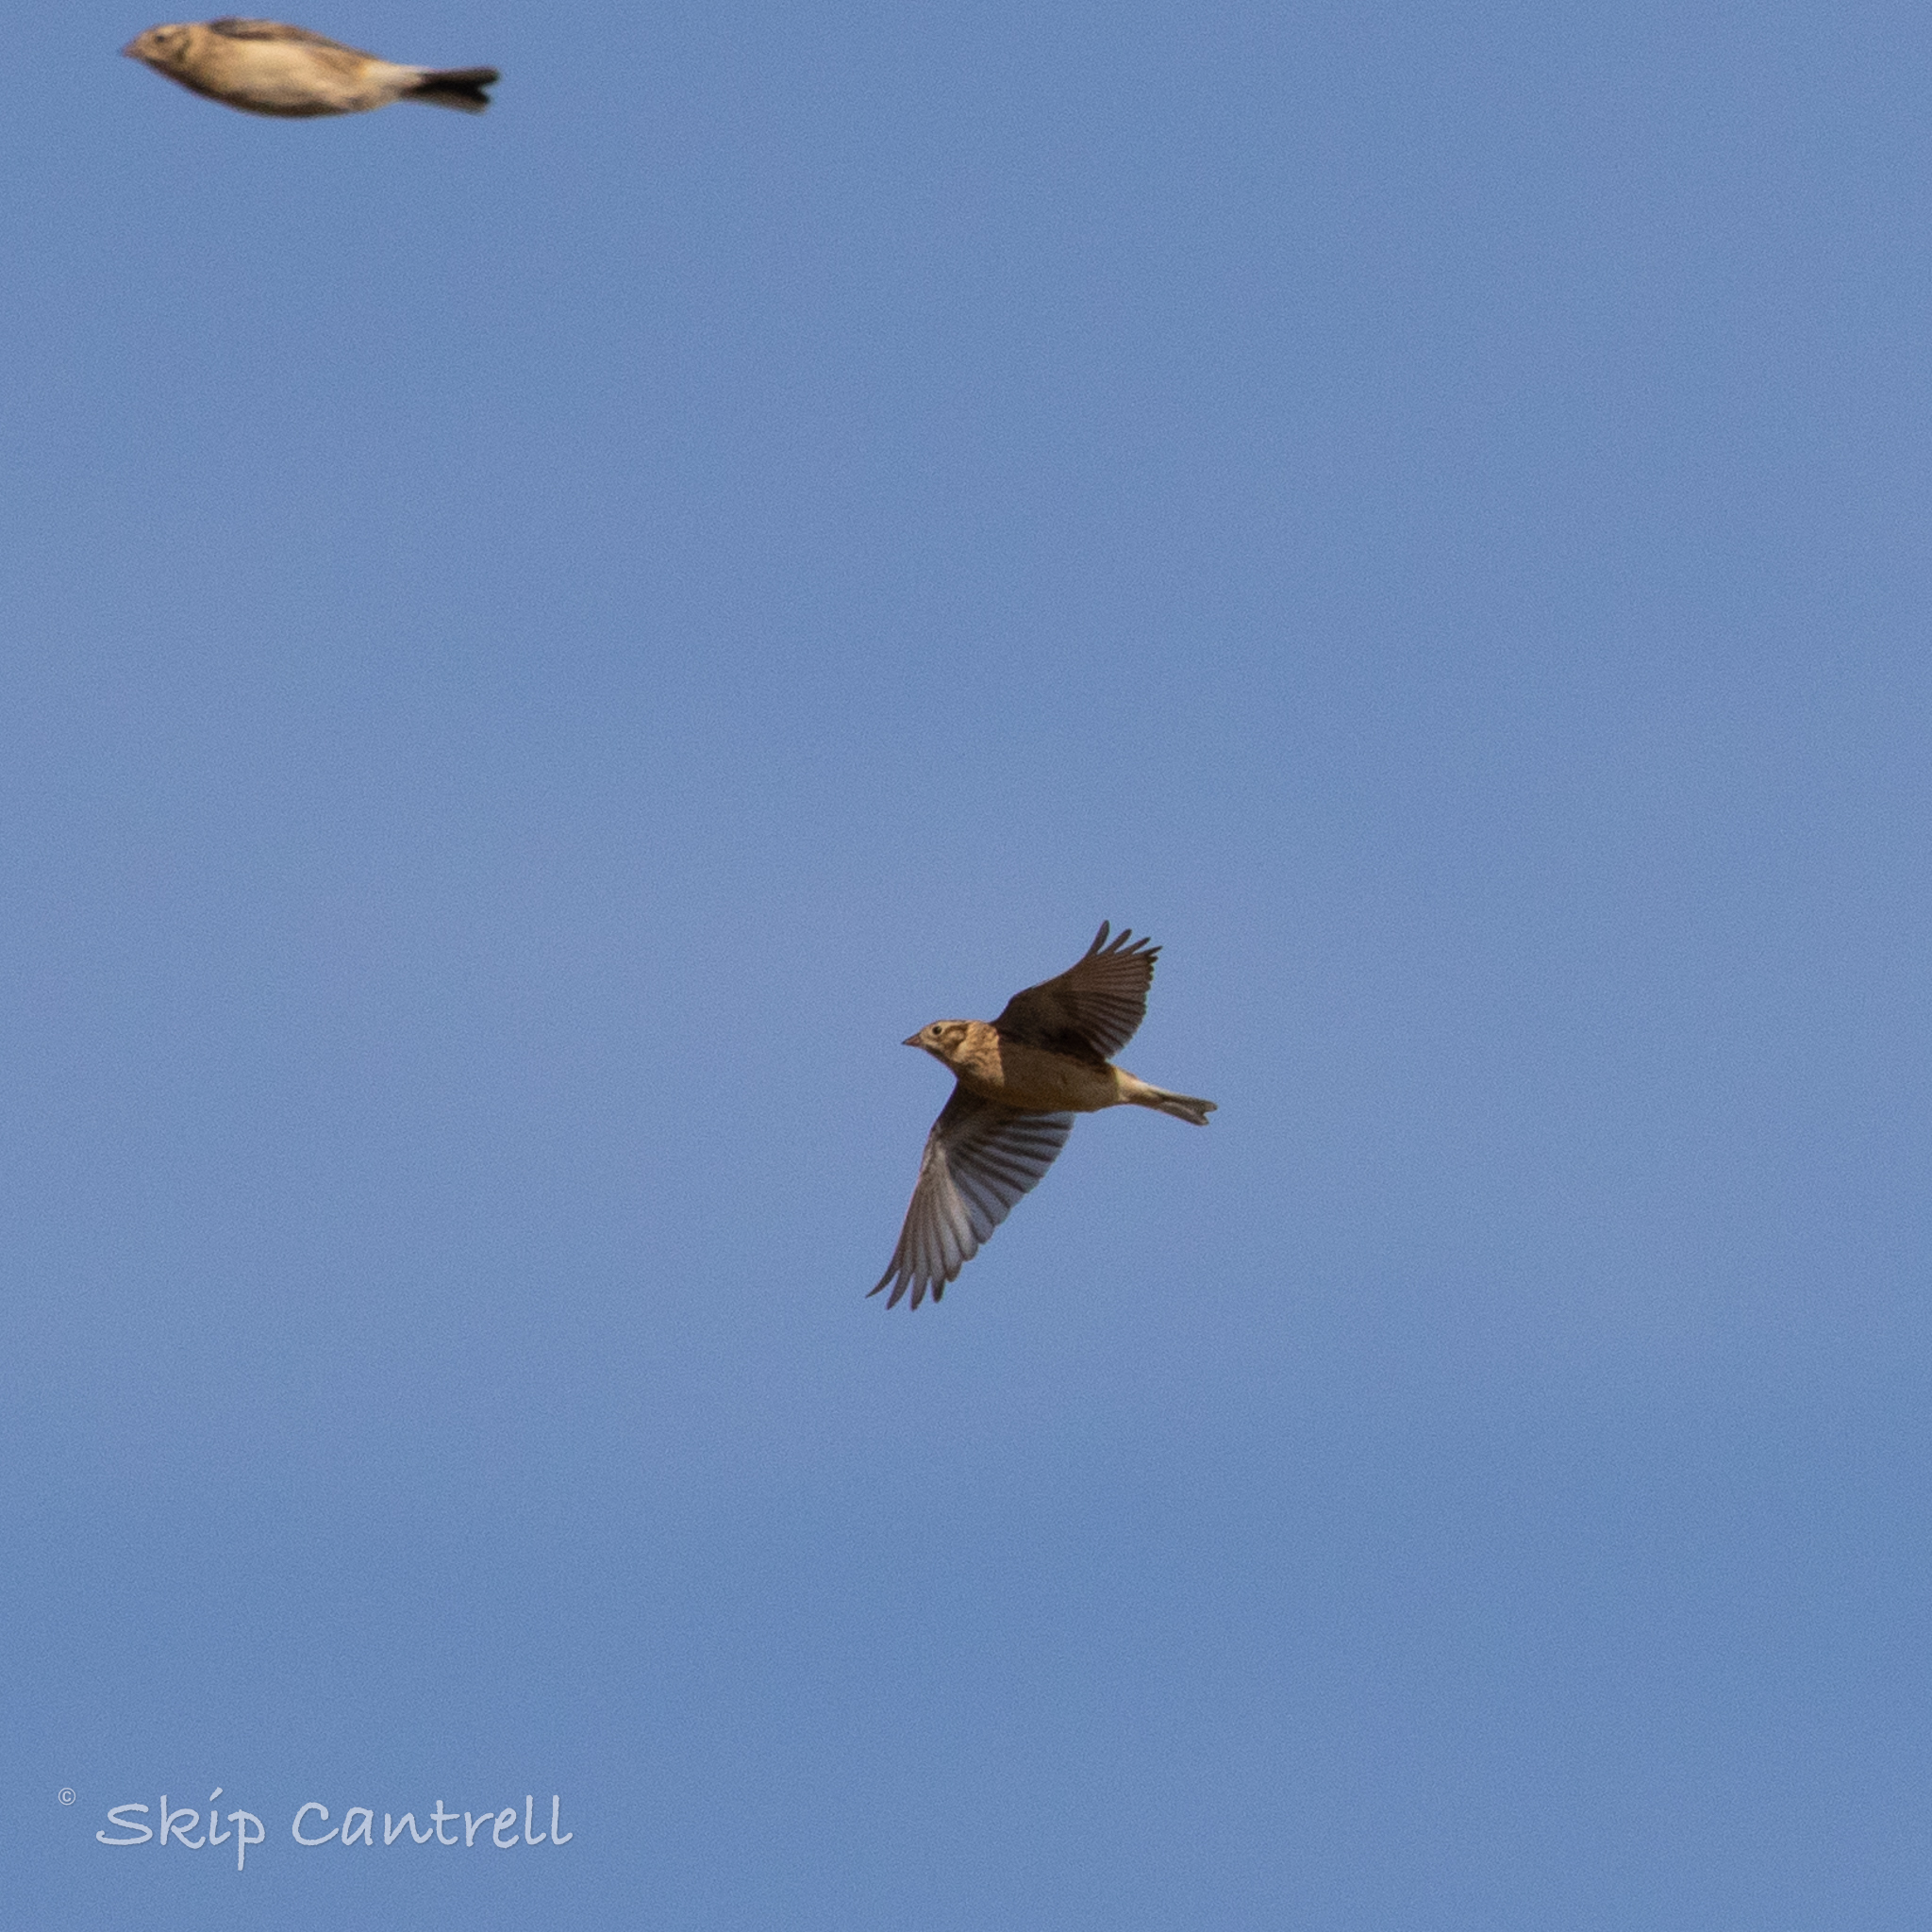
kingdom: Animalia
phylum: Chordata
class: Aves
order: Passeriformes
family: Calcariidae
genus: Calcarius
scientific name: Calcarius pictus
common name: Smith's longspur
